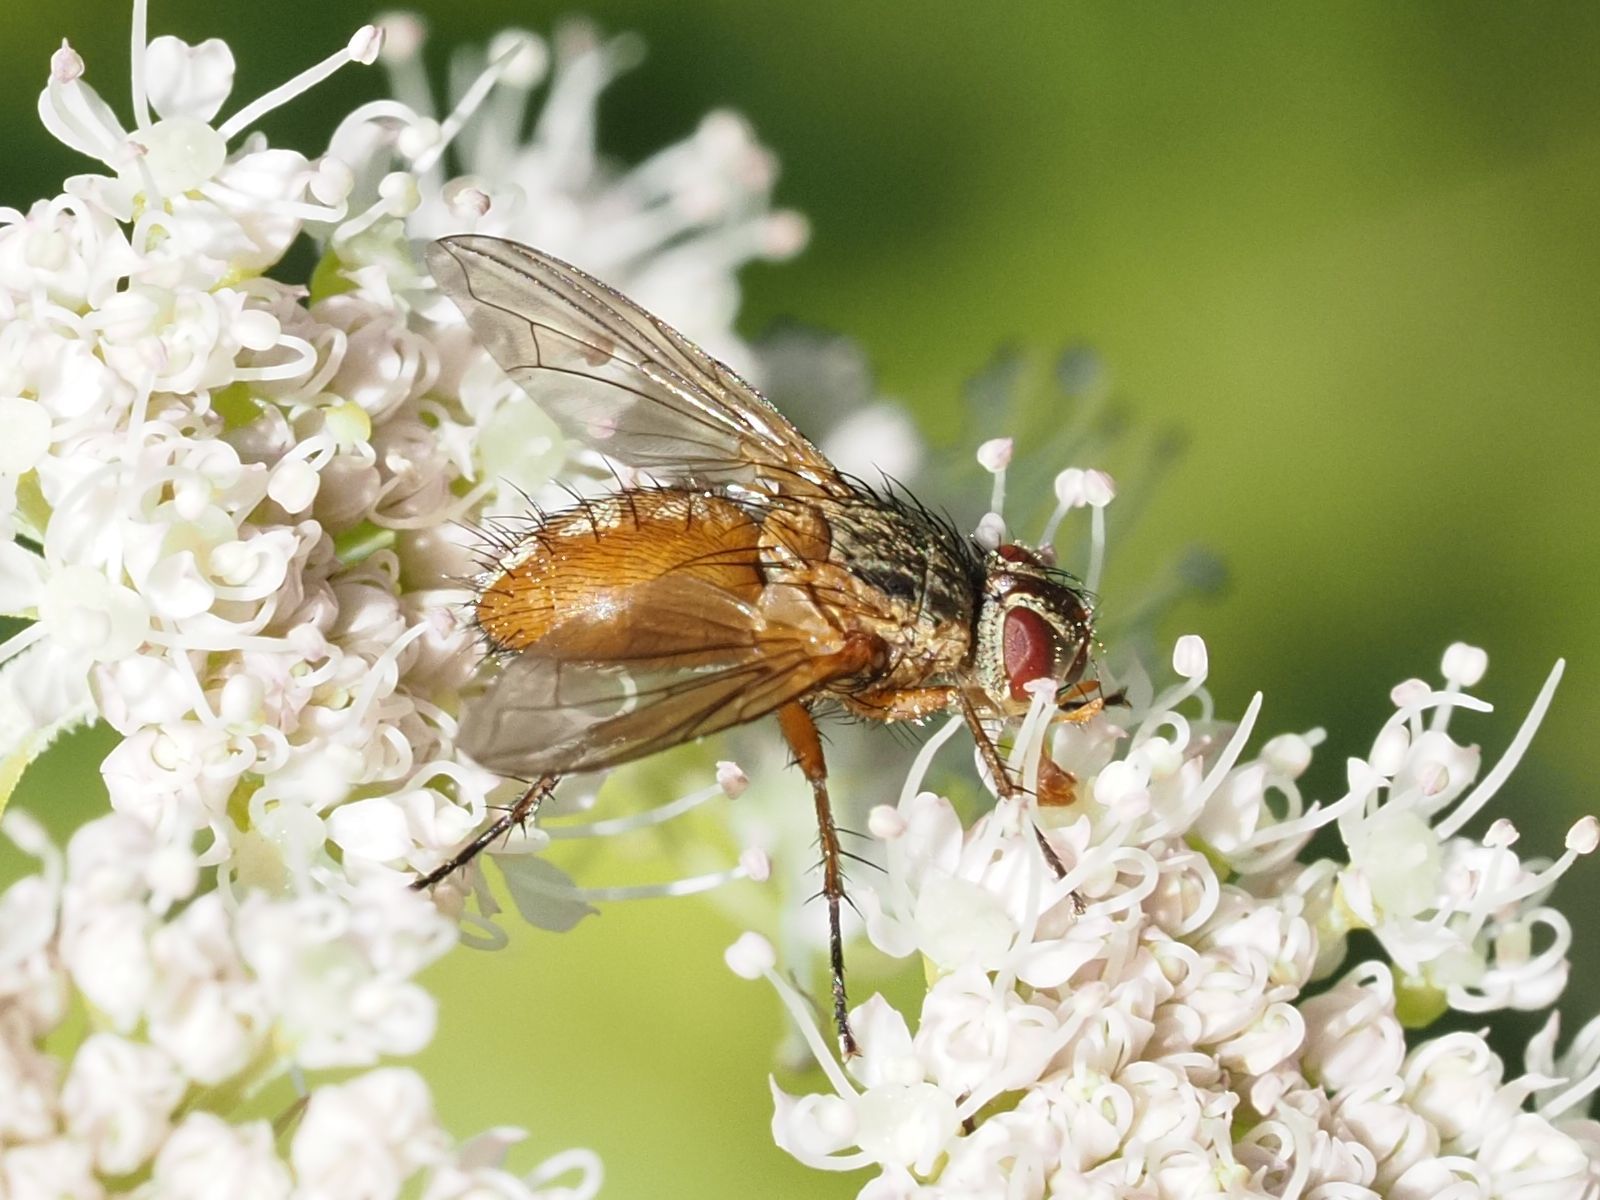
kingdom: Animalia
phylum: Arthropoda
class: Insecta
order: Diptera
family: Tachinidae
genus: Hyalurgus
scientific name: Hyalurgus lucidus
